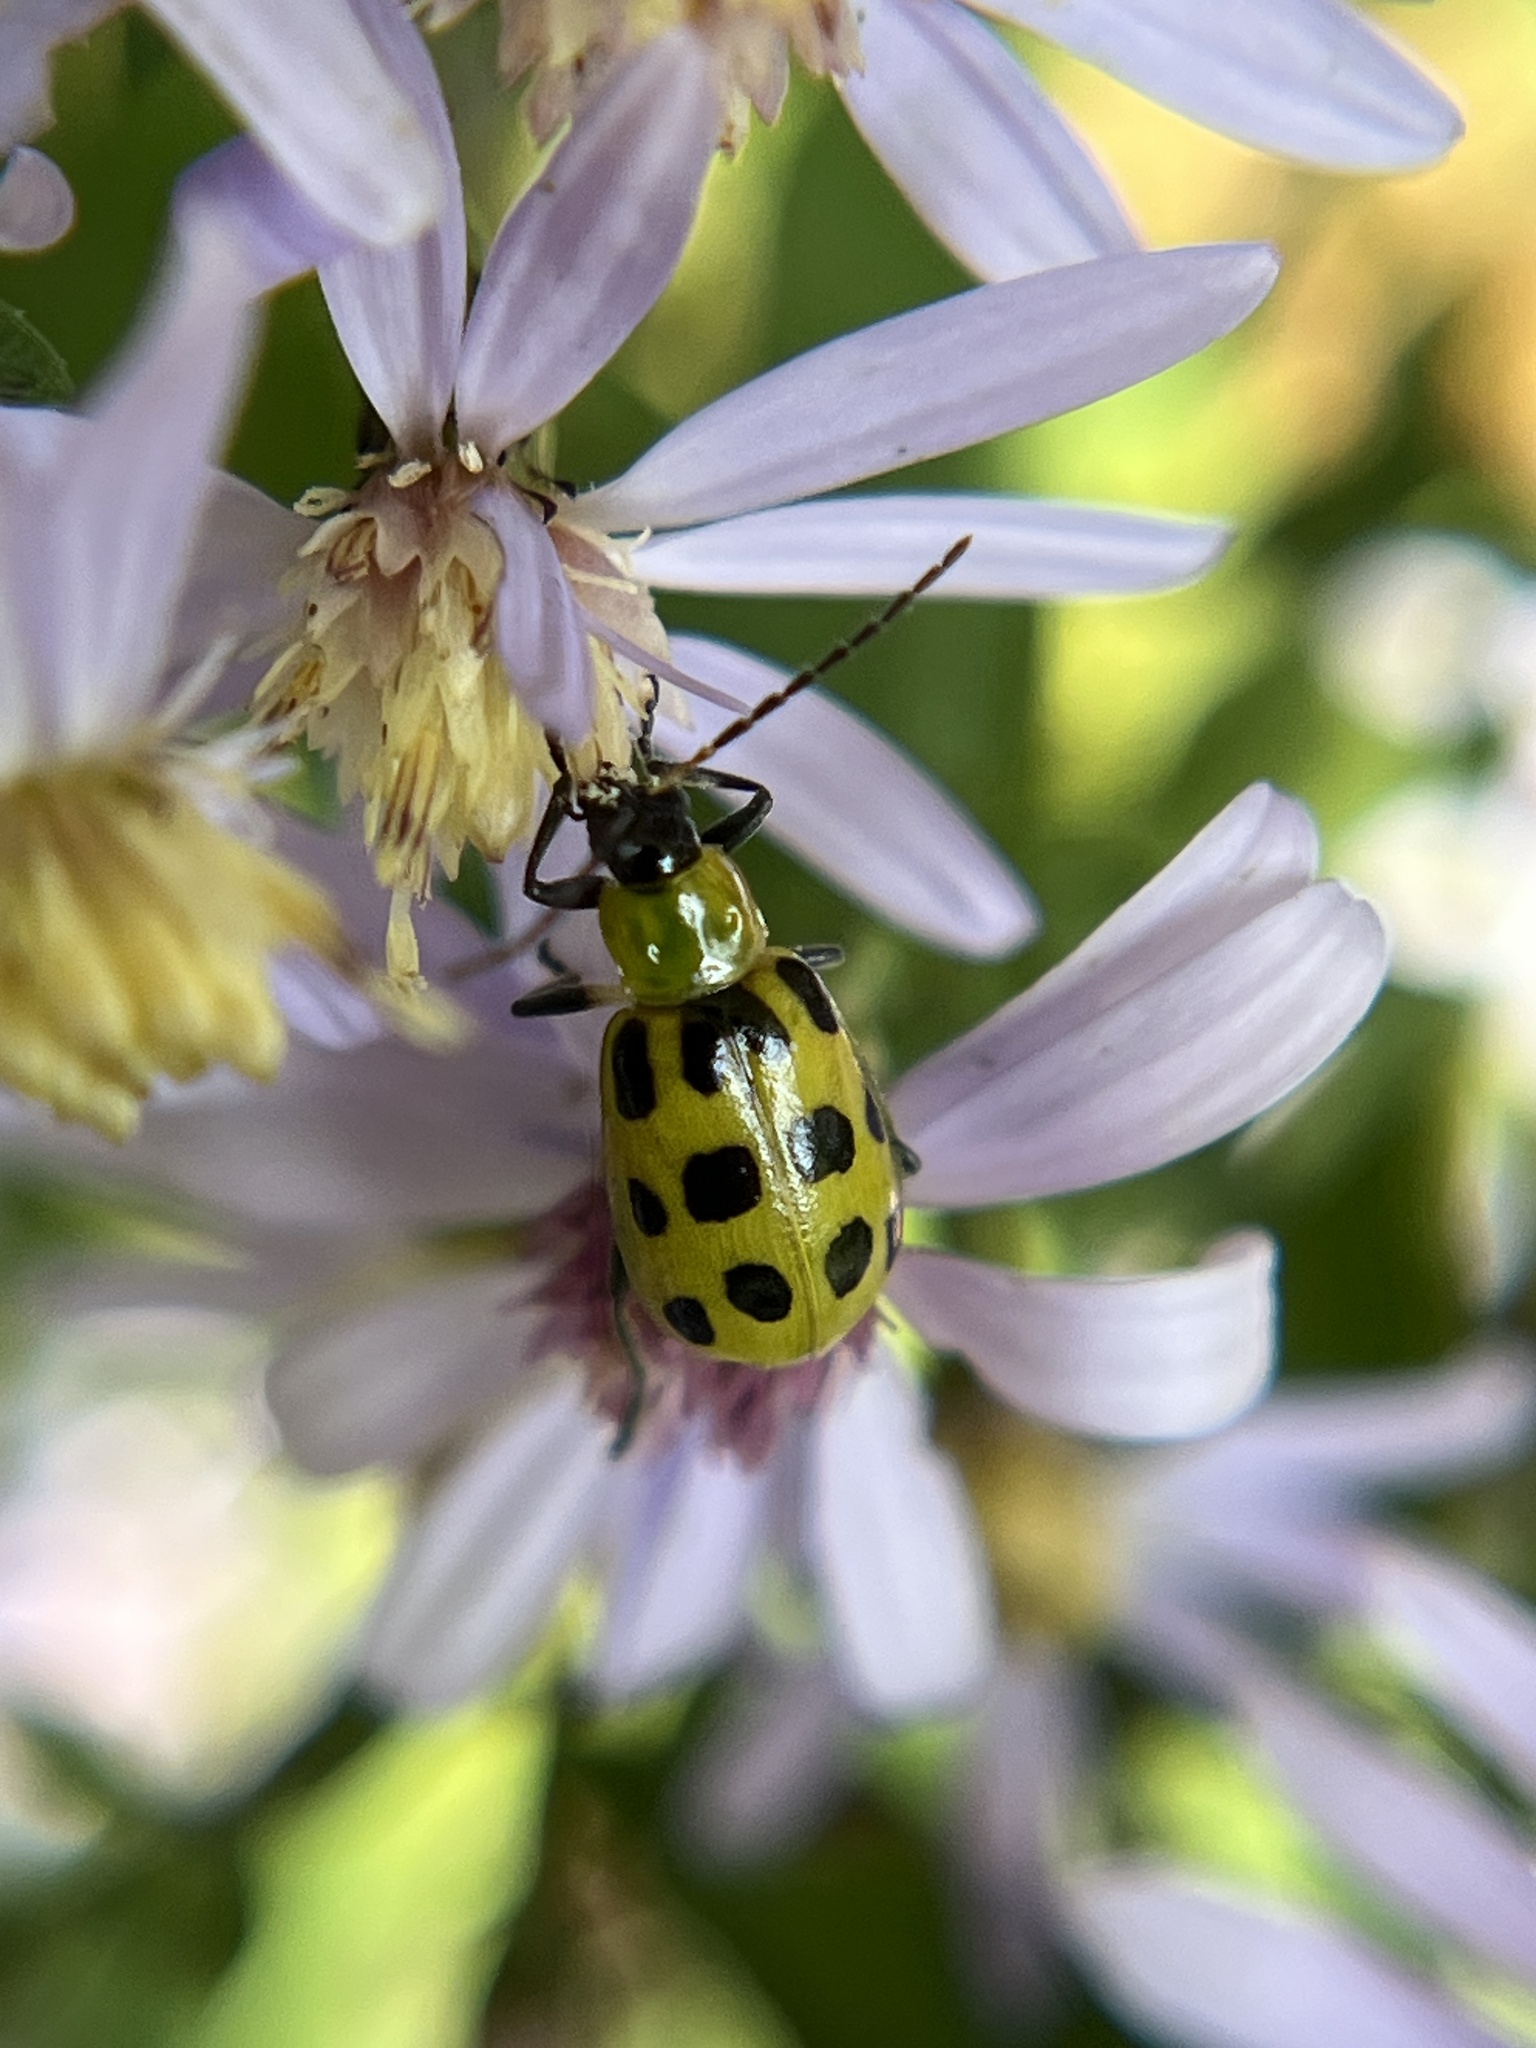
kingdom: Animalia
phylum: Arthropoda
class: Insecta
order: Coleoptera
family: Chrysomelidae
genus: Diabrotica
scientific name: Diabrotica undecimpunctata
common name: Spotted cucumber beetle
